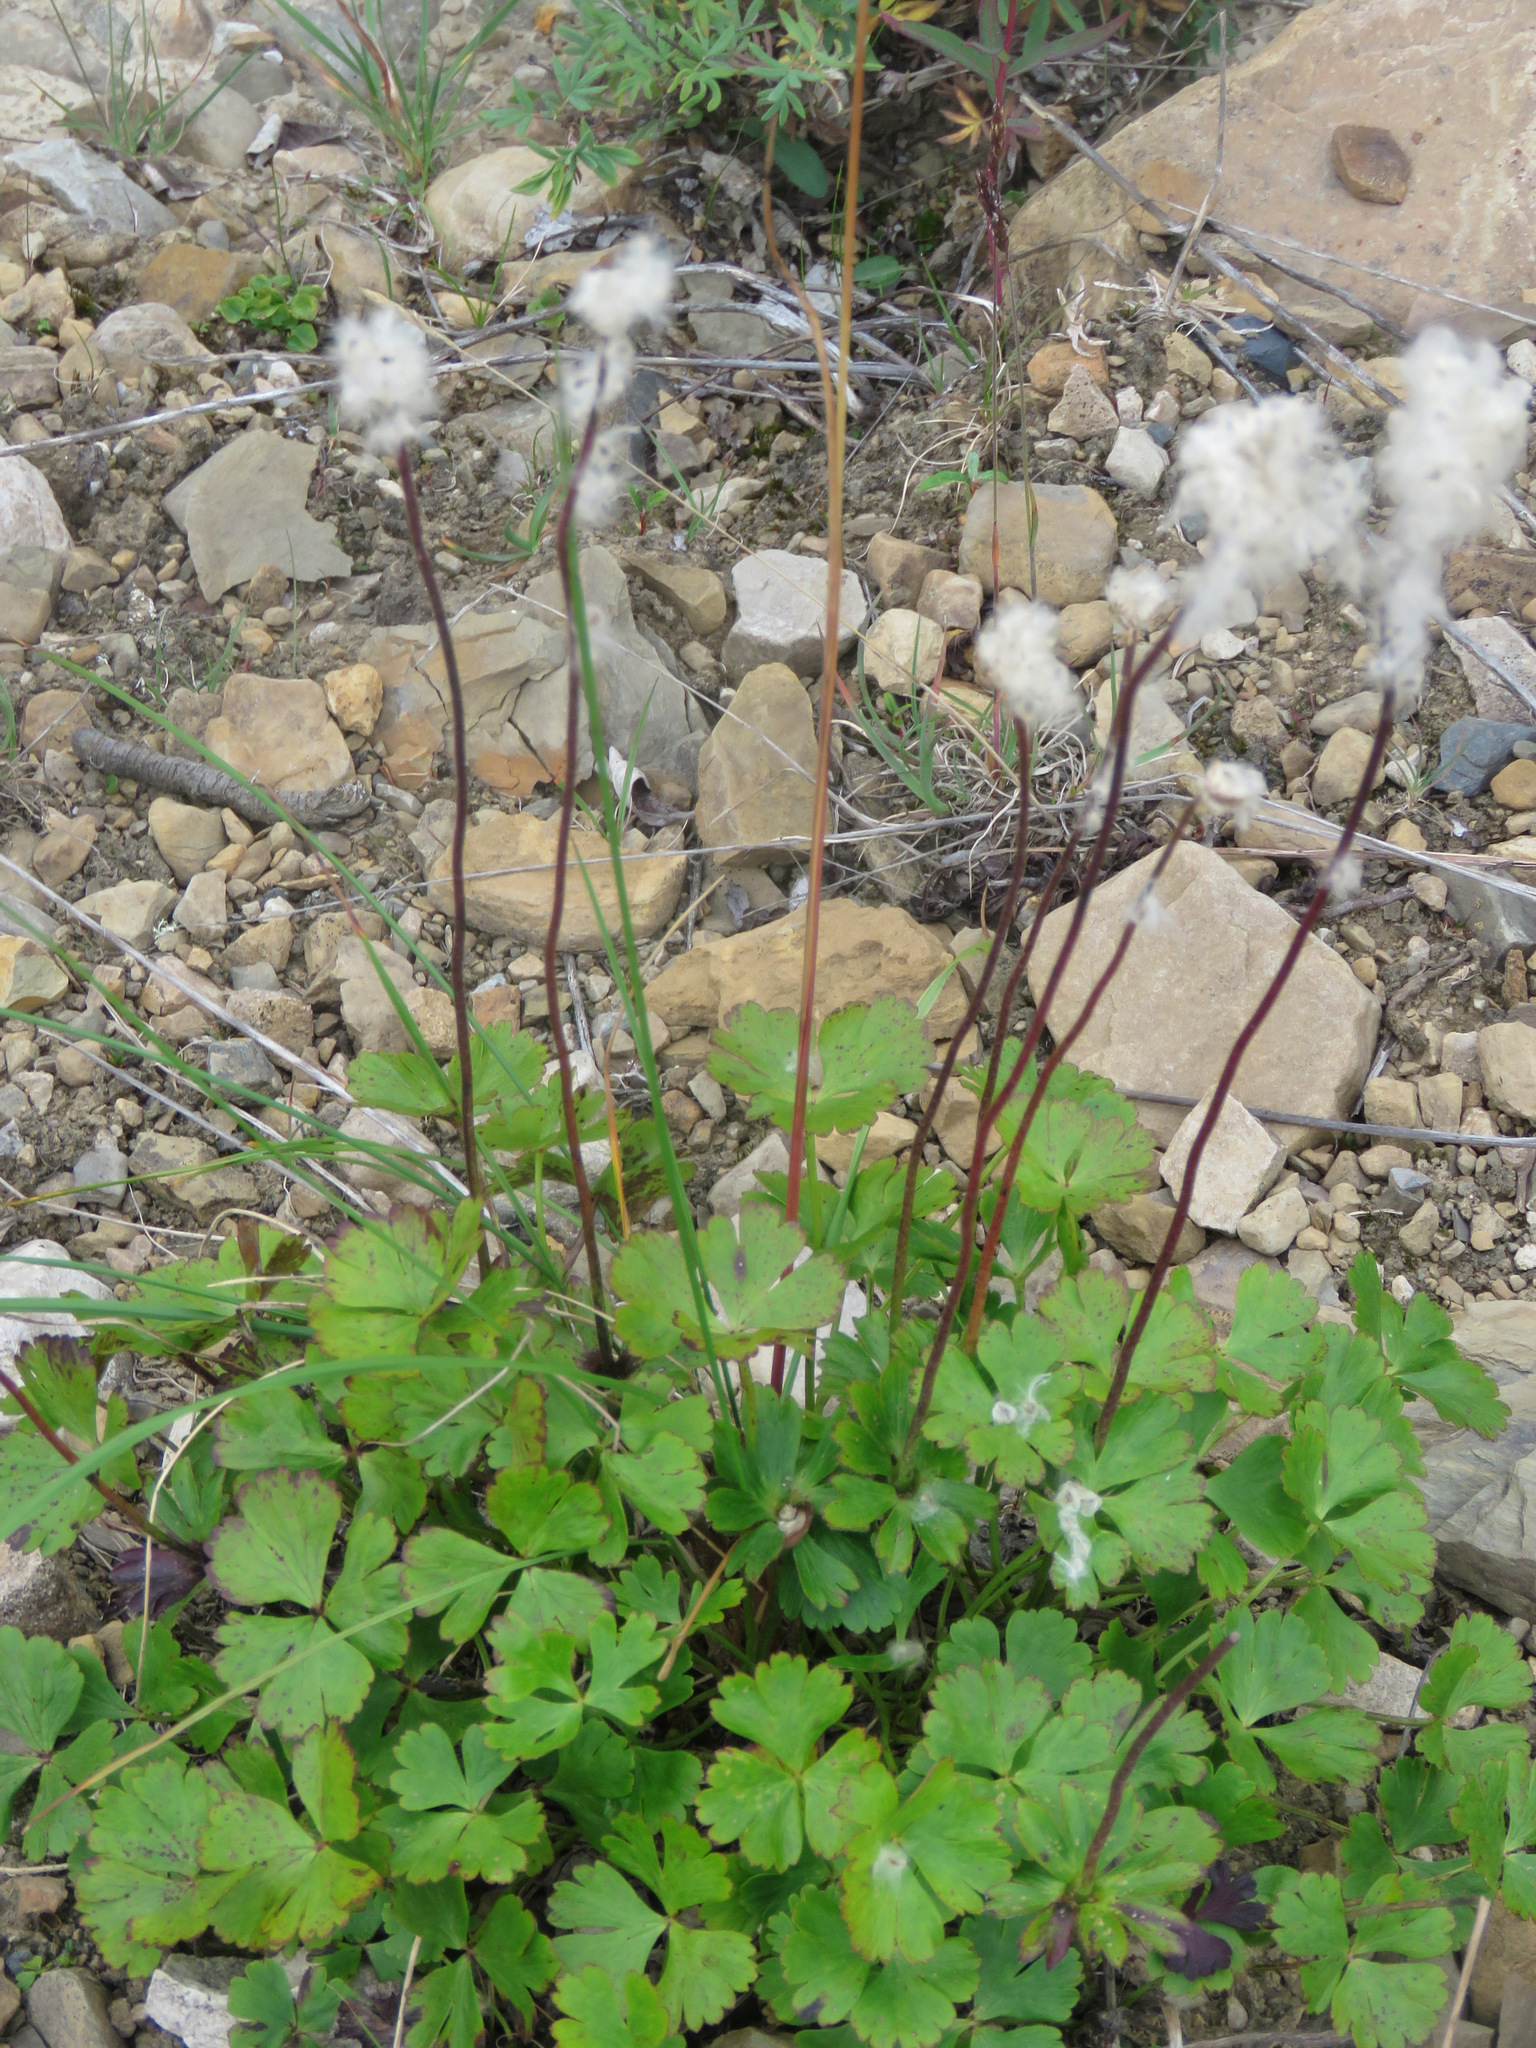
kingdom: Plantae
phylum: Tracheophyta
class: Magnoliopsida
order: Ranunculales
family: Ranunculaceae
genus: Anemone
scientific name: Anemone parviflora
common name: Northern anemone
